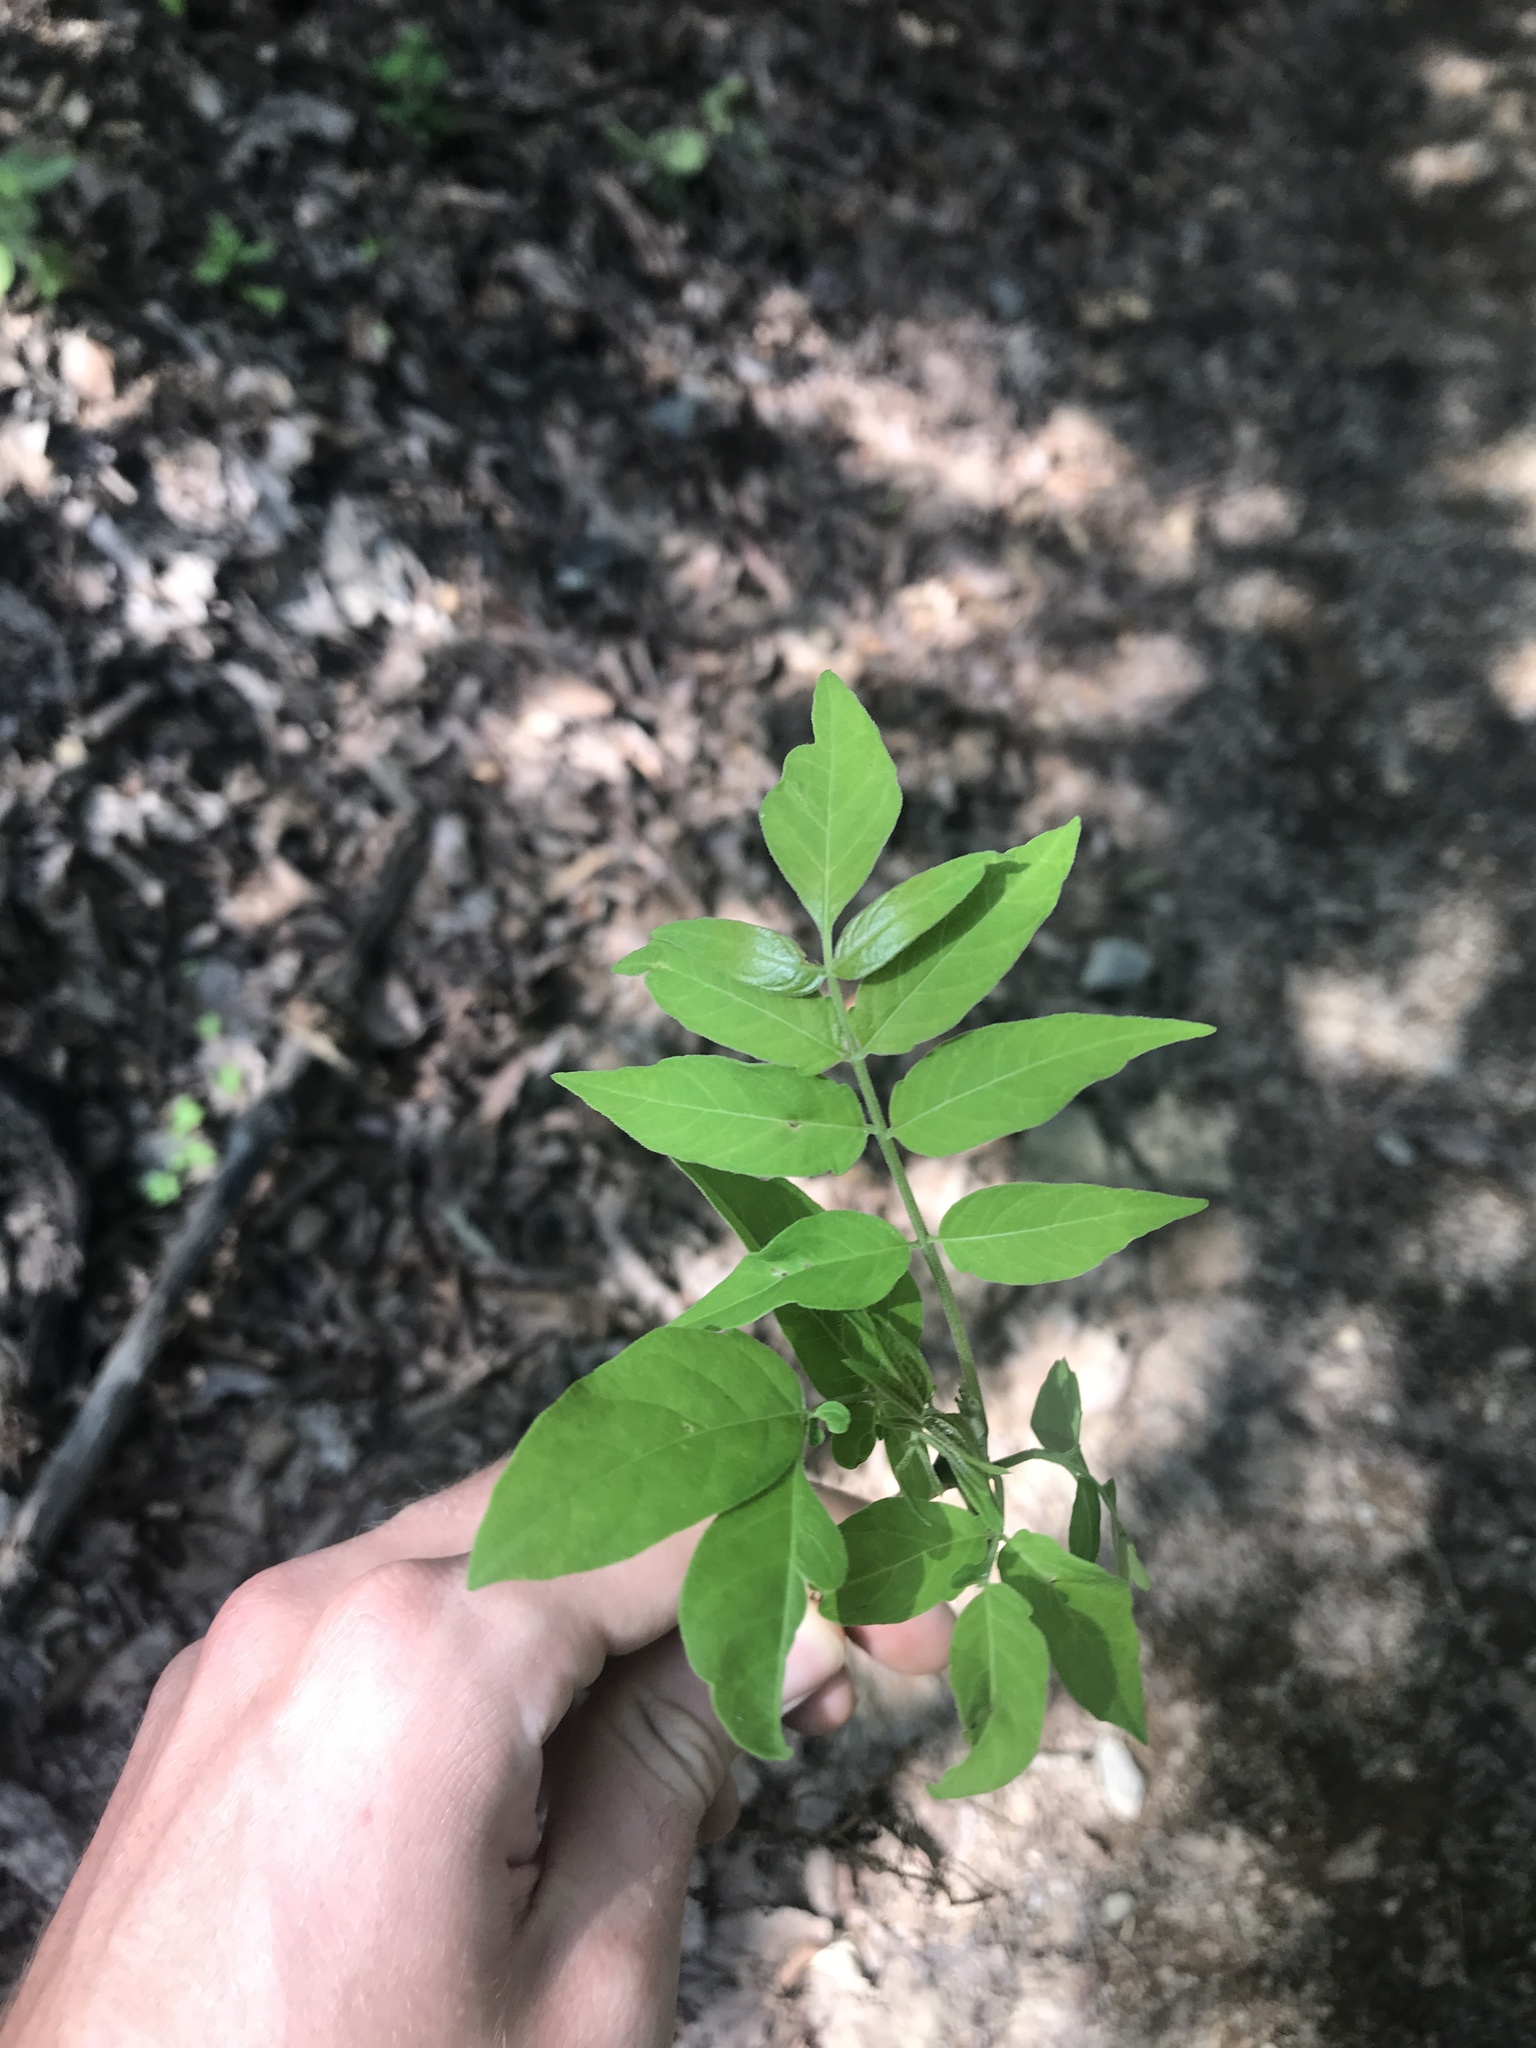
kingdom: Plantae
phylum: Tracheophyta
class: Magnoliopsida
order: Sapindales
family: Simaroubaceae
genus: Ailanthus
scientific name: Ailanthus altissima
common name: Tree-of-heaven
